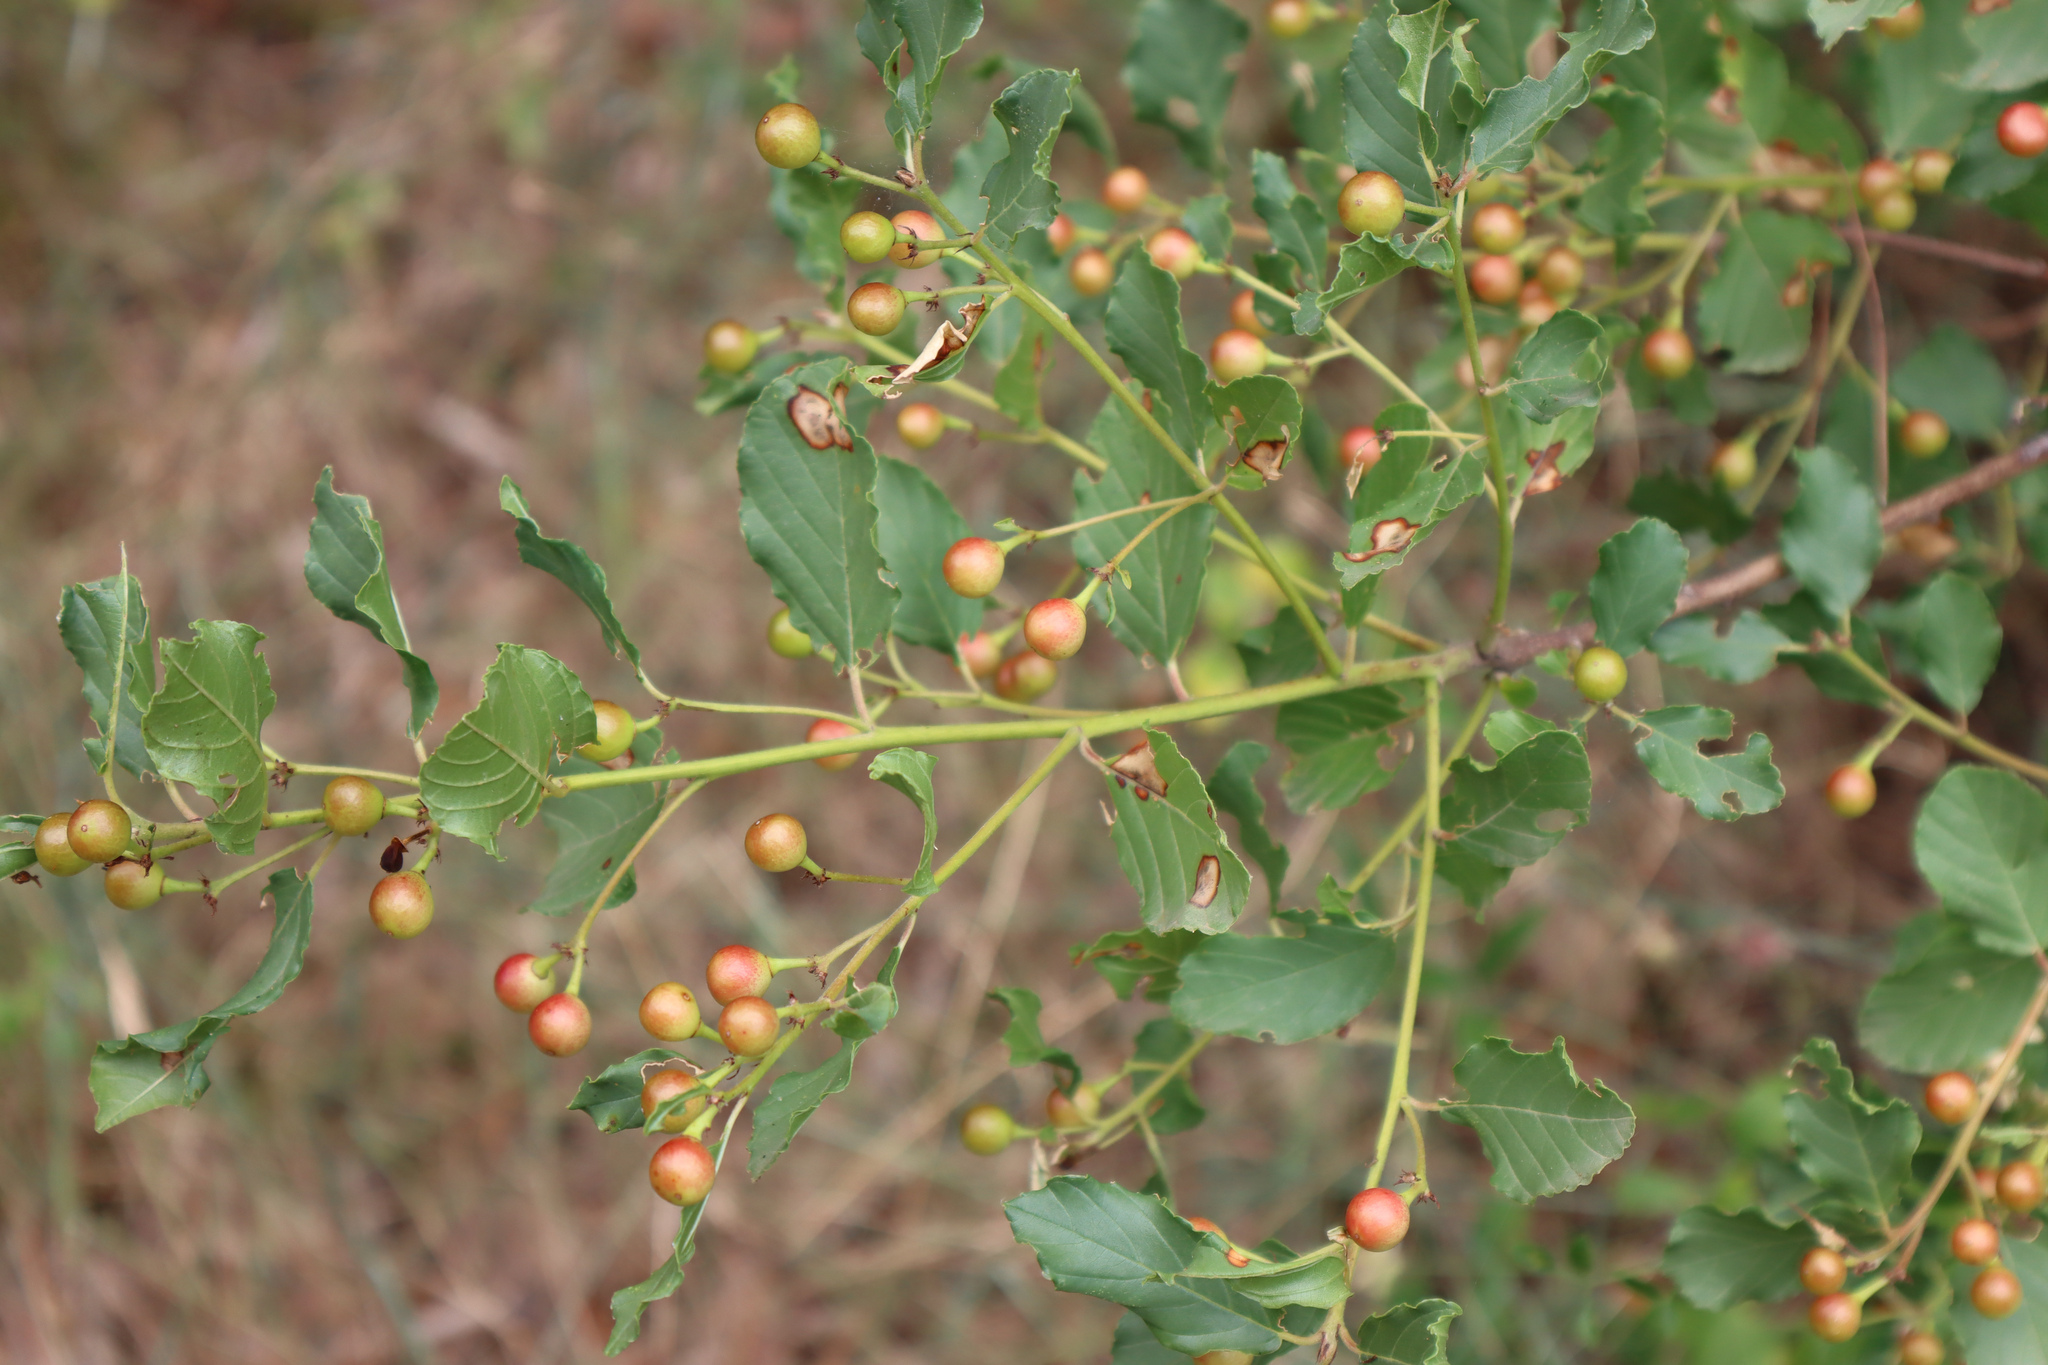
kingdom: Plantae
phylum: Tracheophyta
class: Magnoliopsida
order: Rosales
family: Rhamnaceae
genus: Frangula
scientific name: Frangula rupestris
